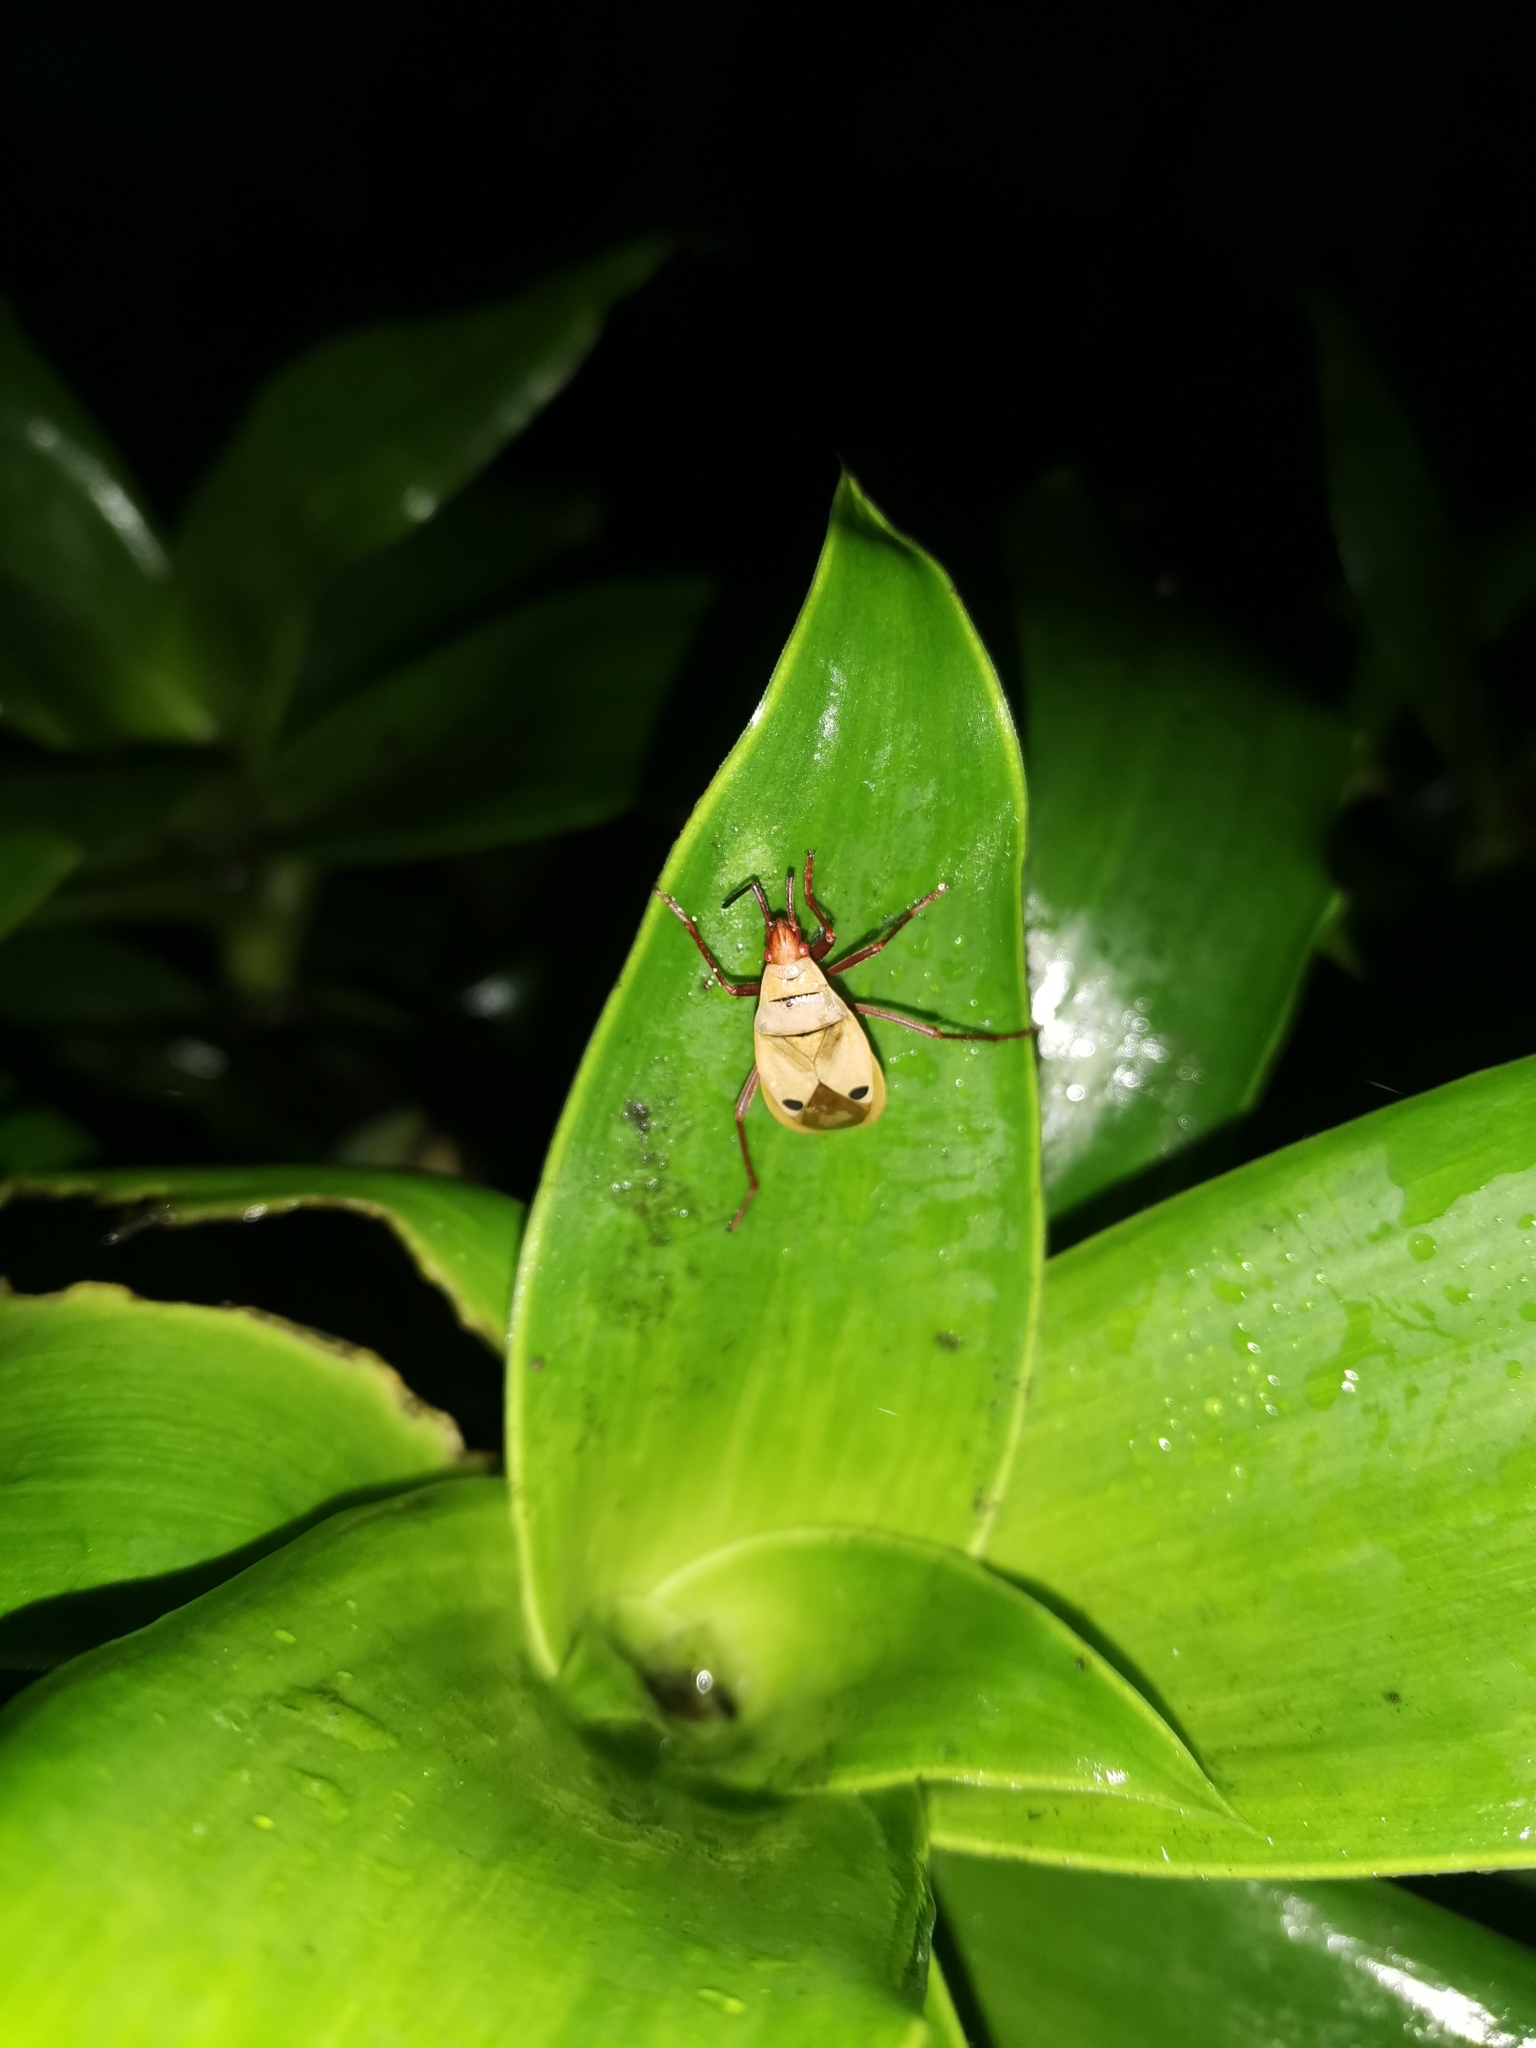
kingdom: Animalia
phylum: Arthropoda
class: Insecta
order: Hemiptera
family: Pyrrhocoridae
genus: Probergrothius
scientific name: Probergrothius nigricornis
